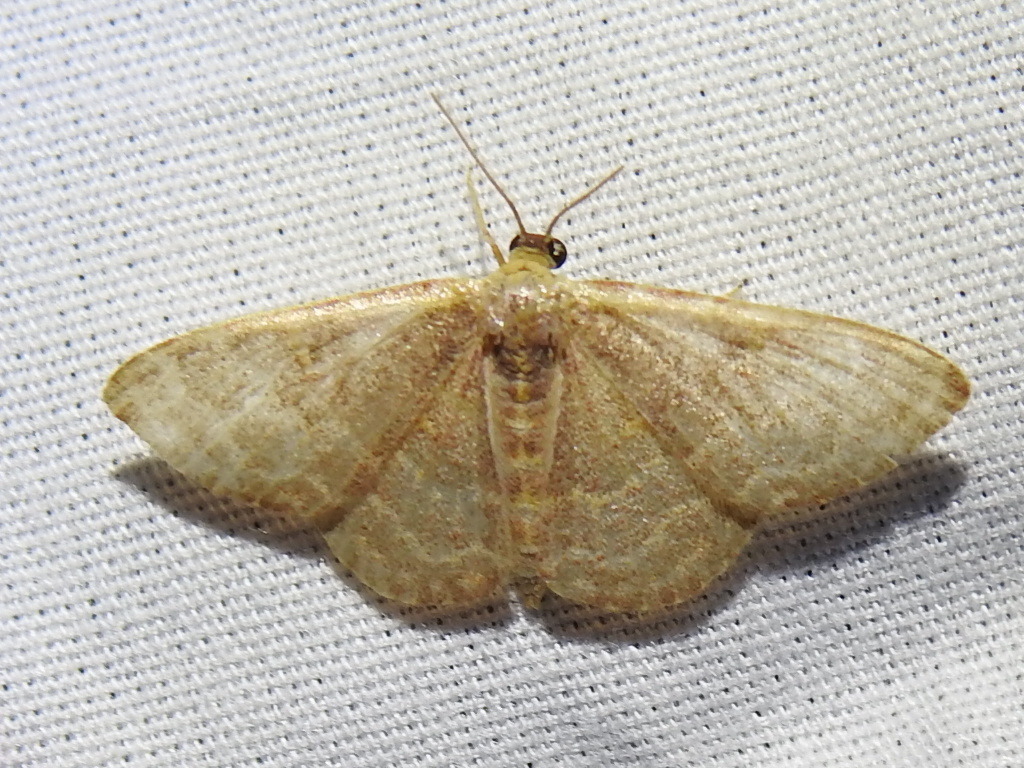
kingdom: Animalia
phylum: Arthropoda
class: Insecta
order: Lepidoptera
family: Geometridae
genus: Leptostales
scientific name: Leptostales pannaria
